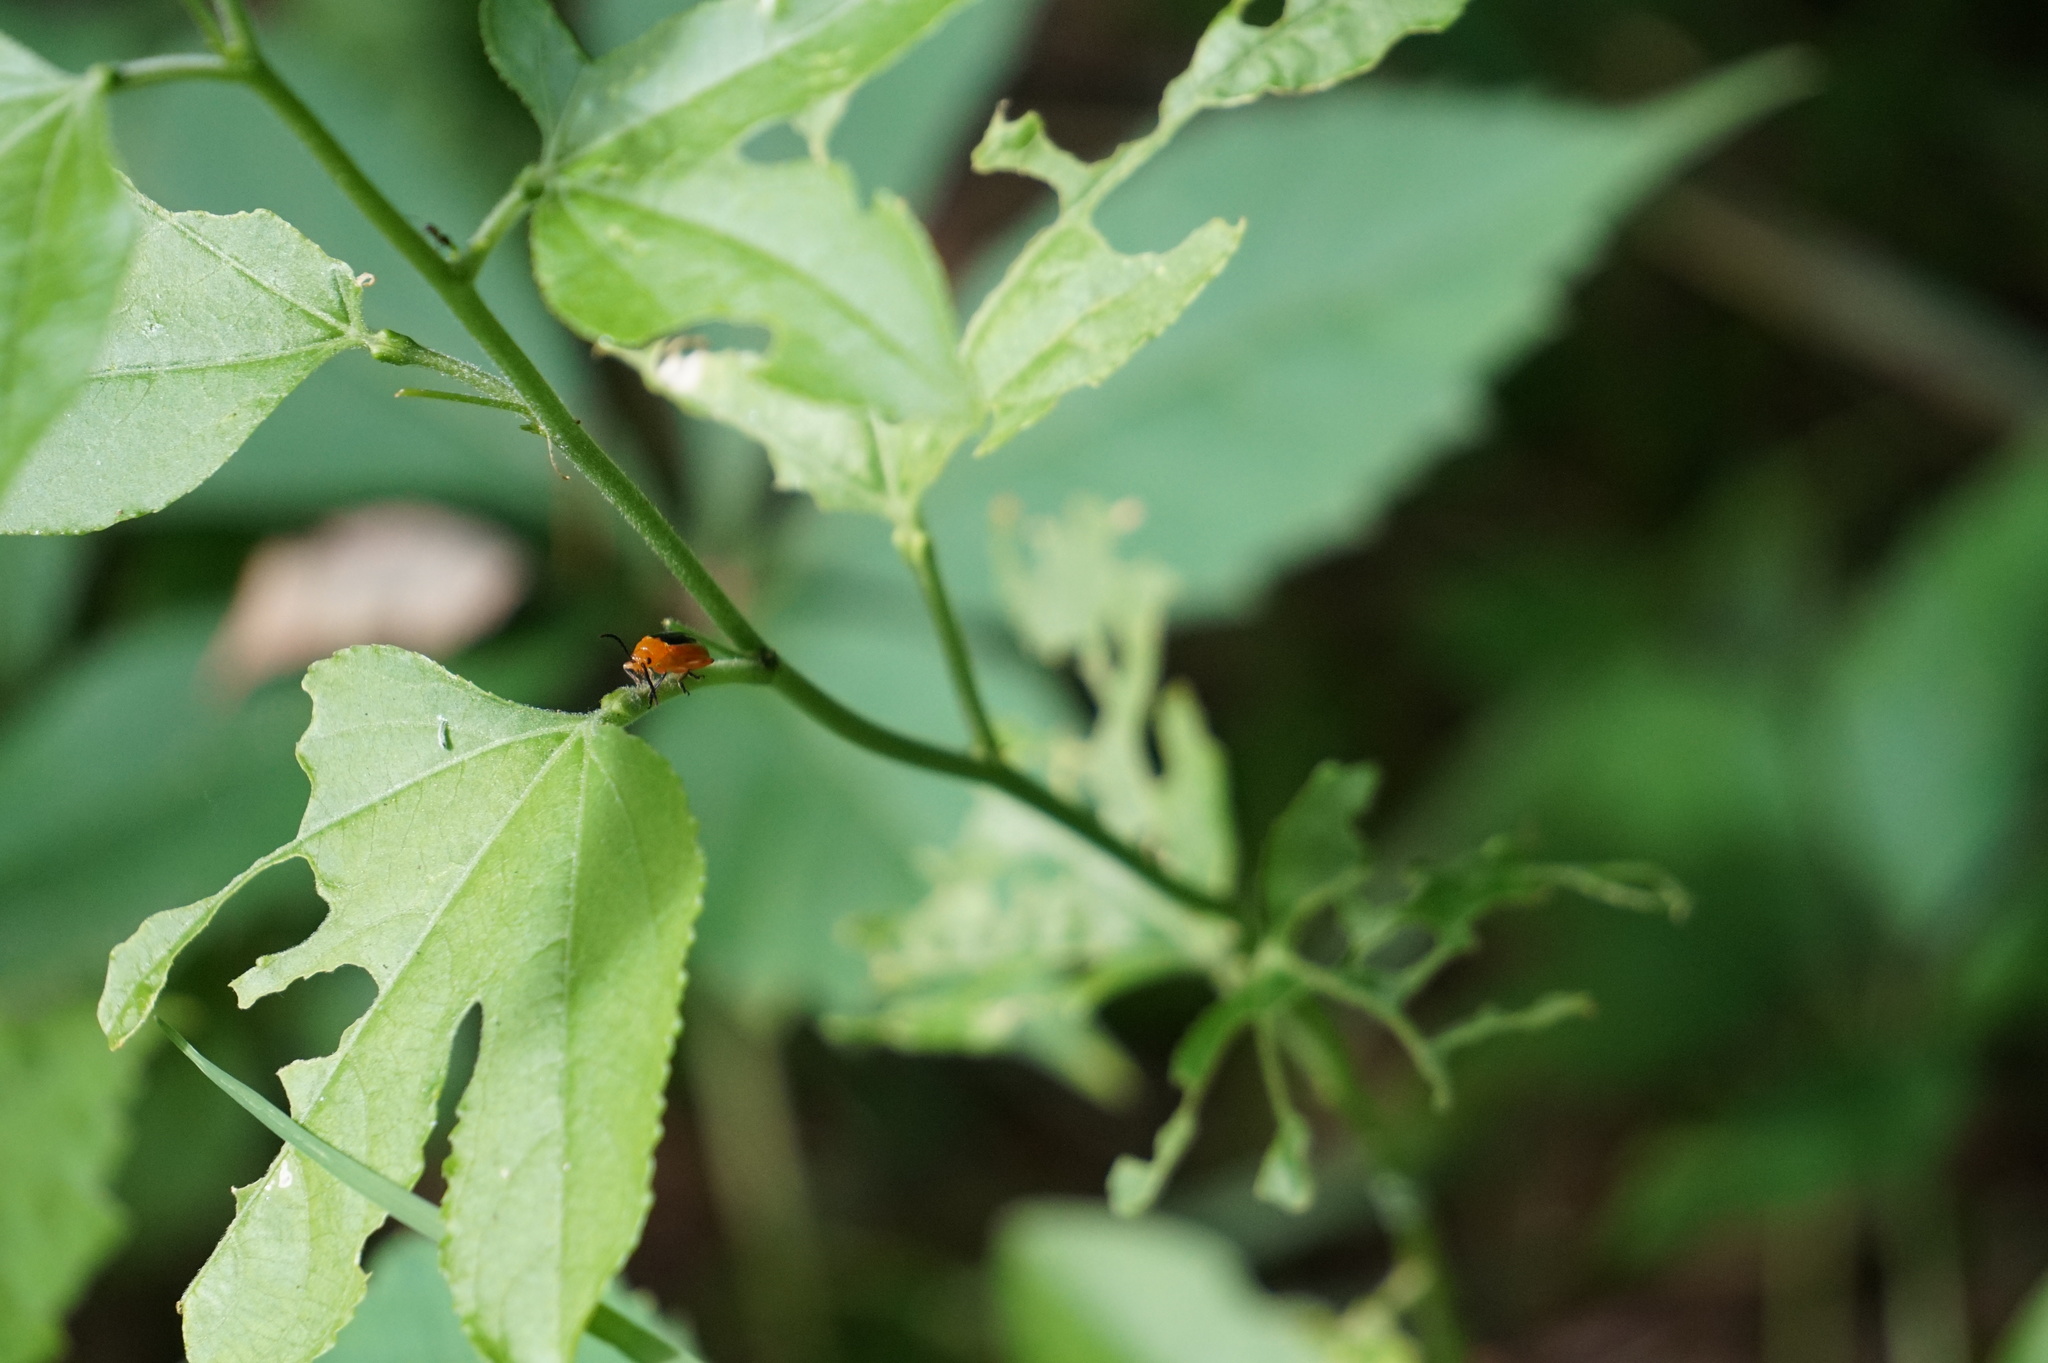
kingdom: Animalia
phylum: Arthropoda
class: Insecta
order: Coleoptera
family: Chrysomelidae
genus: Disonycha
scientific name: Disonycha discoidea
